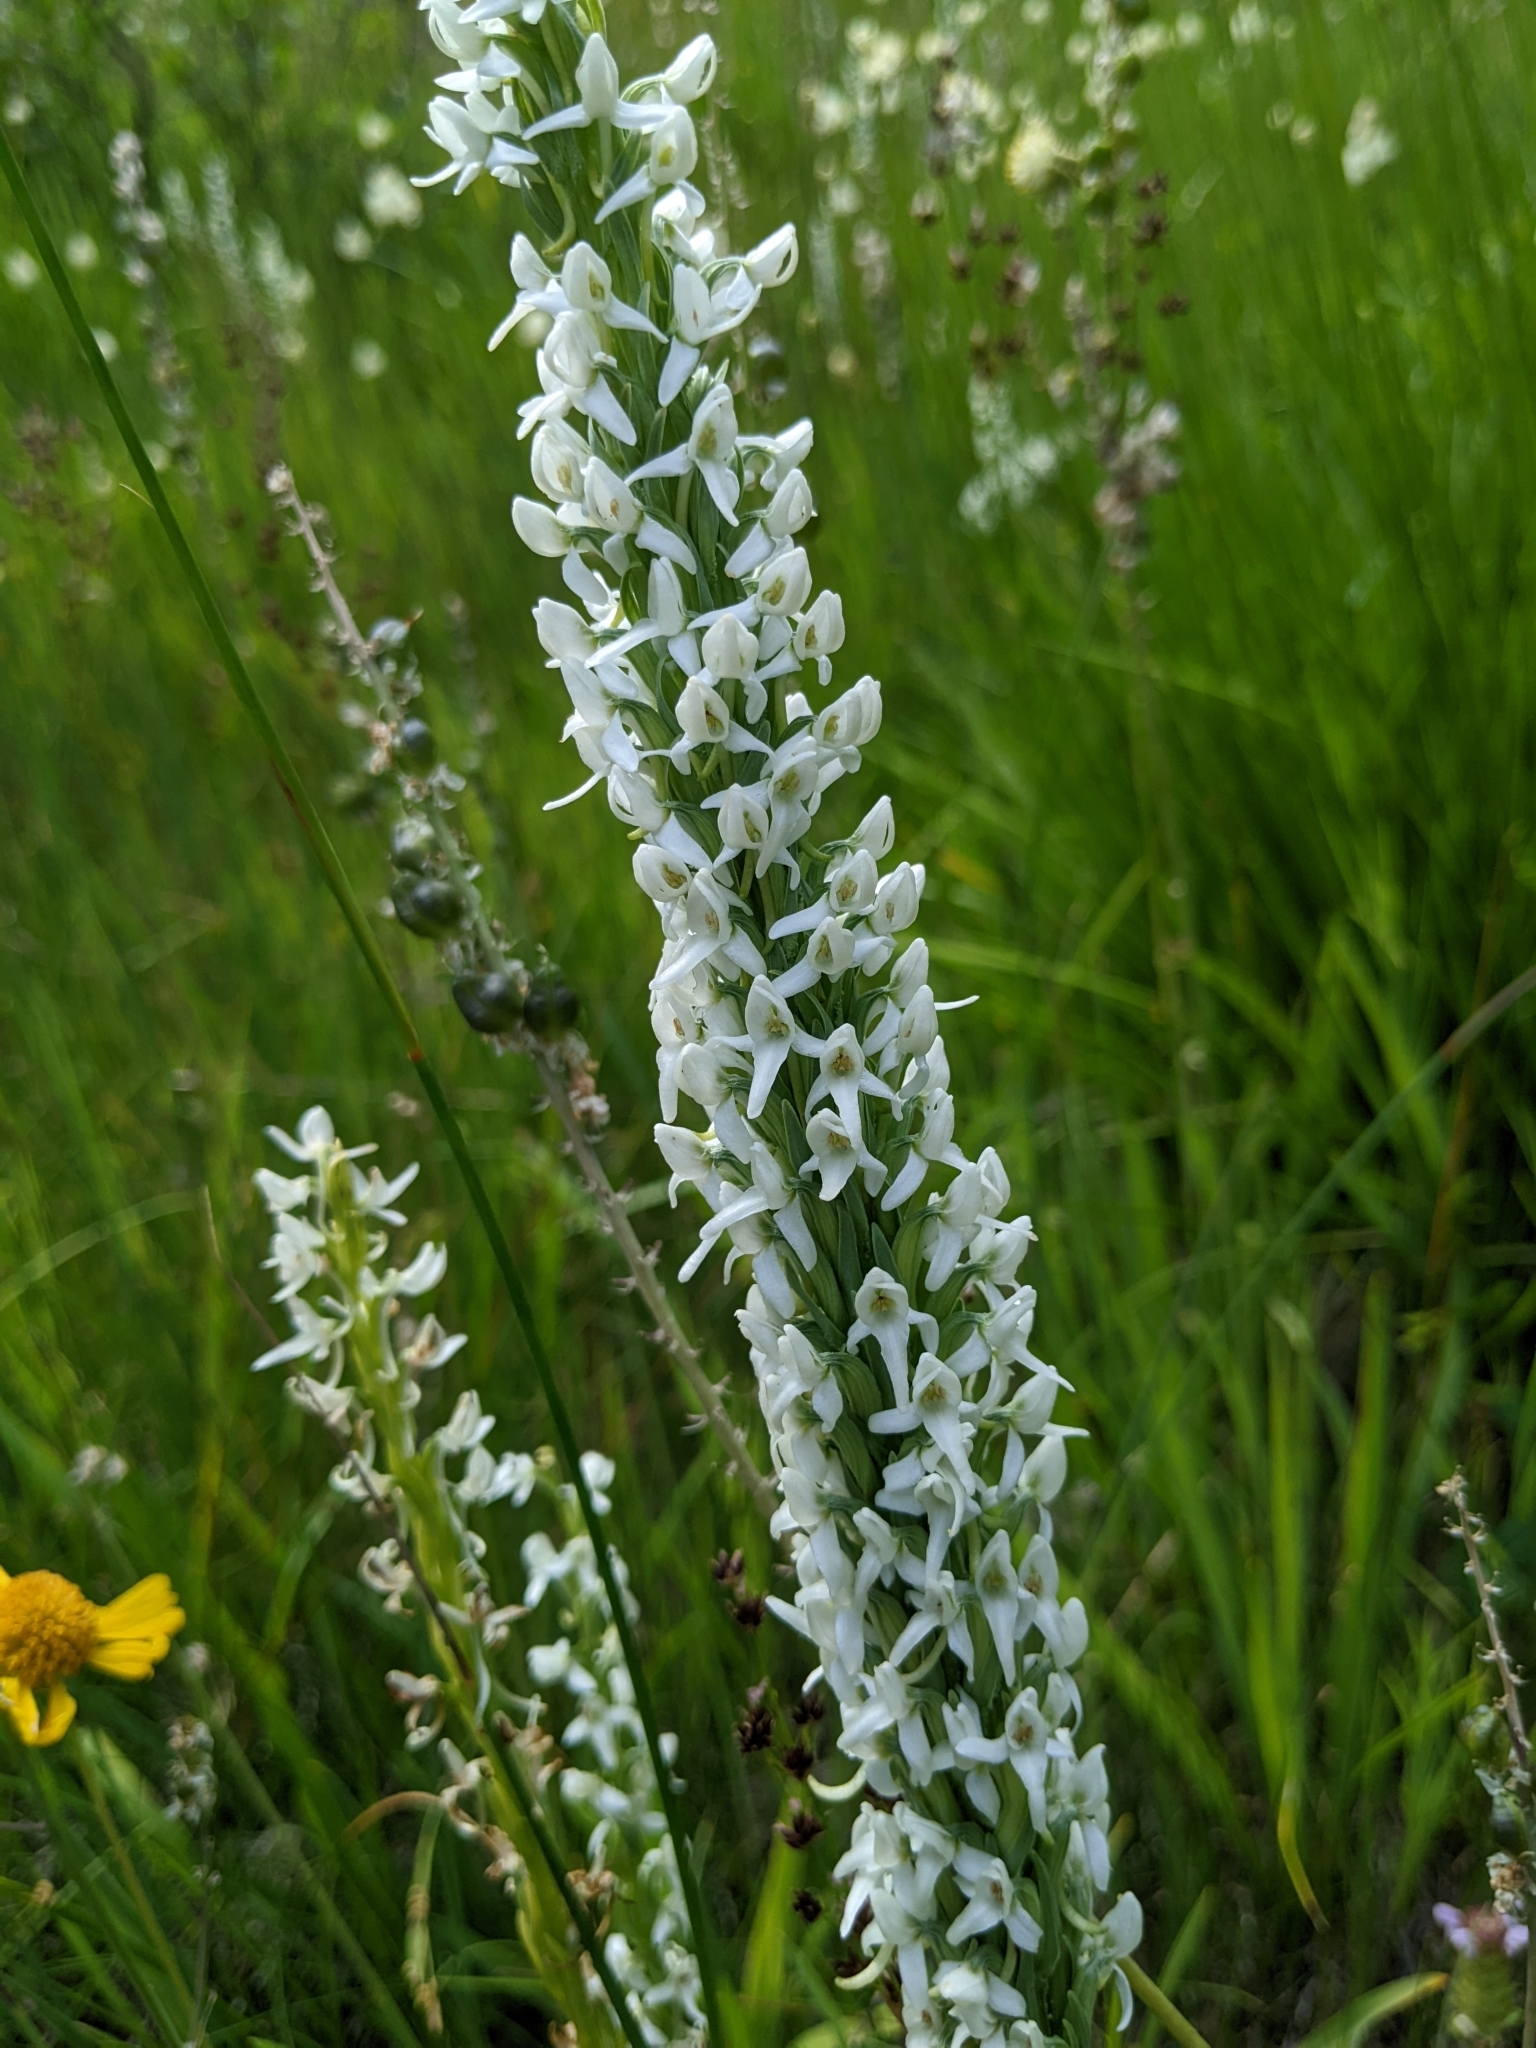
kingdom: Plantae
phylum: Tracheophyta
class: Liliopsida
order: Asparagales
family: Orchidaceae
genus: Platanthera
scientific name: Platanthera dilatata
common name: Bog candles
